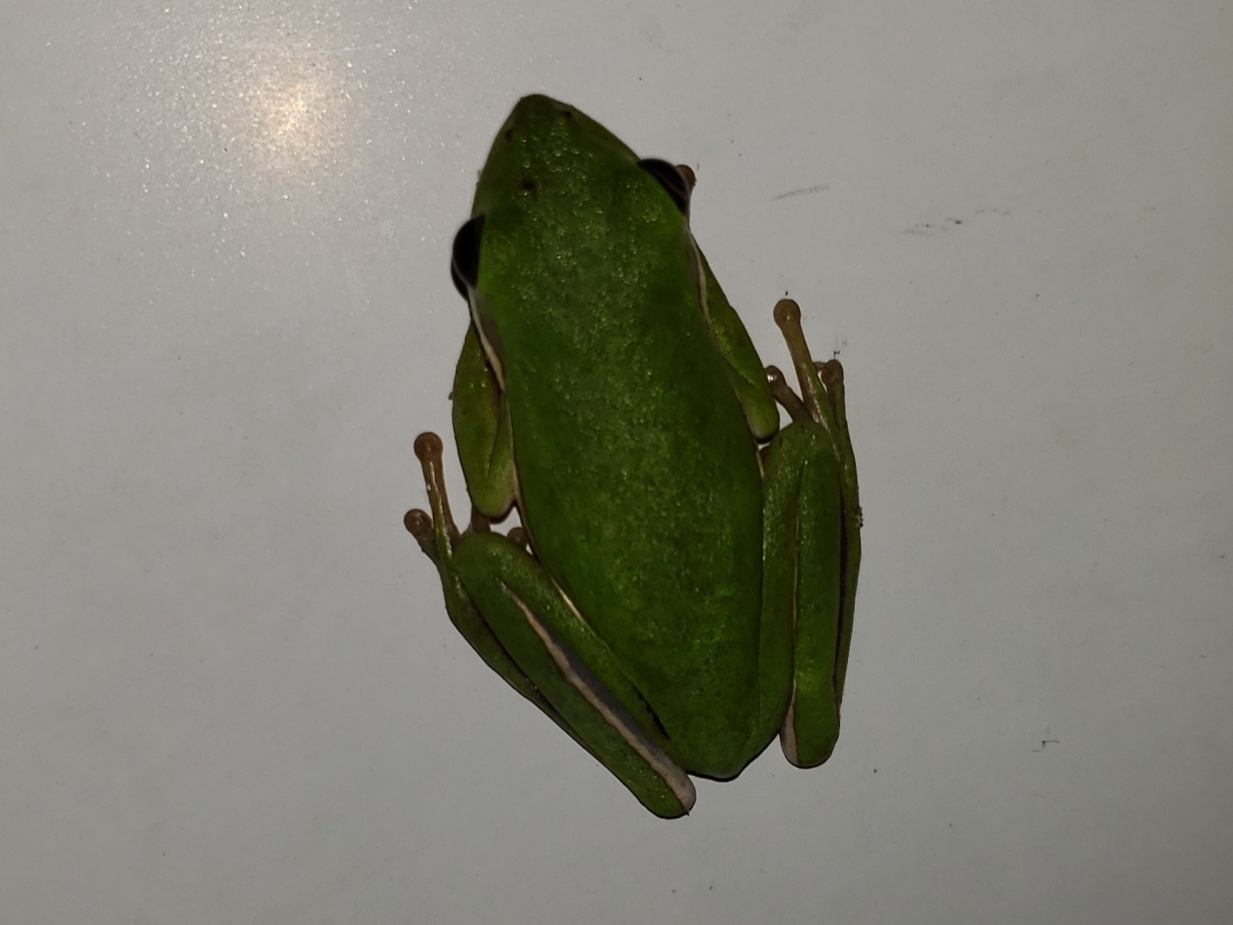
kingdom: Animalia
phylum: Chordata
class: Amphibia
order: Anura
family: Hylidae
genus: Dryophytes
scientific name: Dryophytes cinereus
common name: Green treefrog
